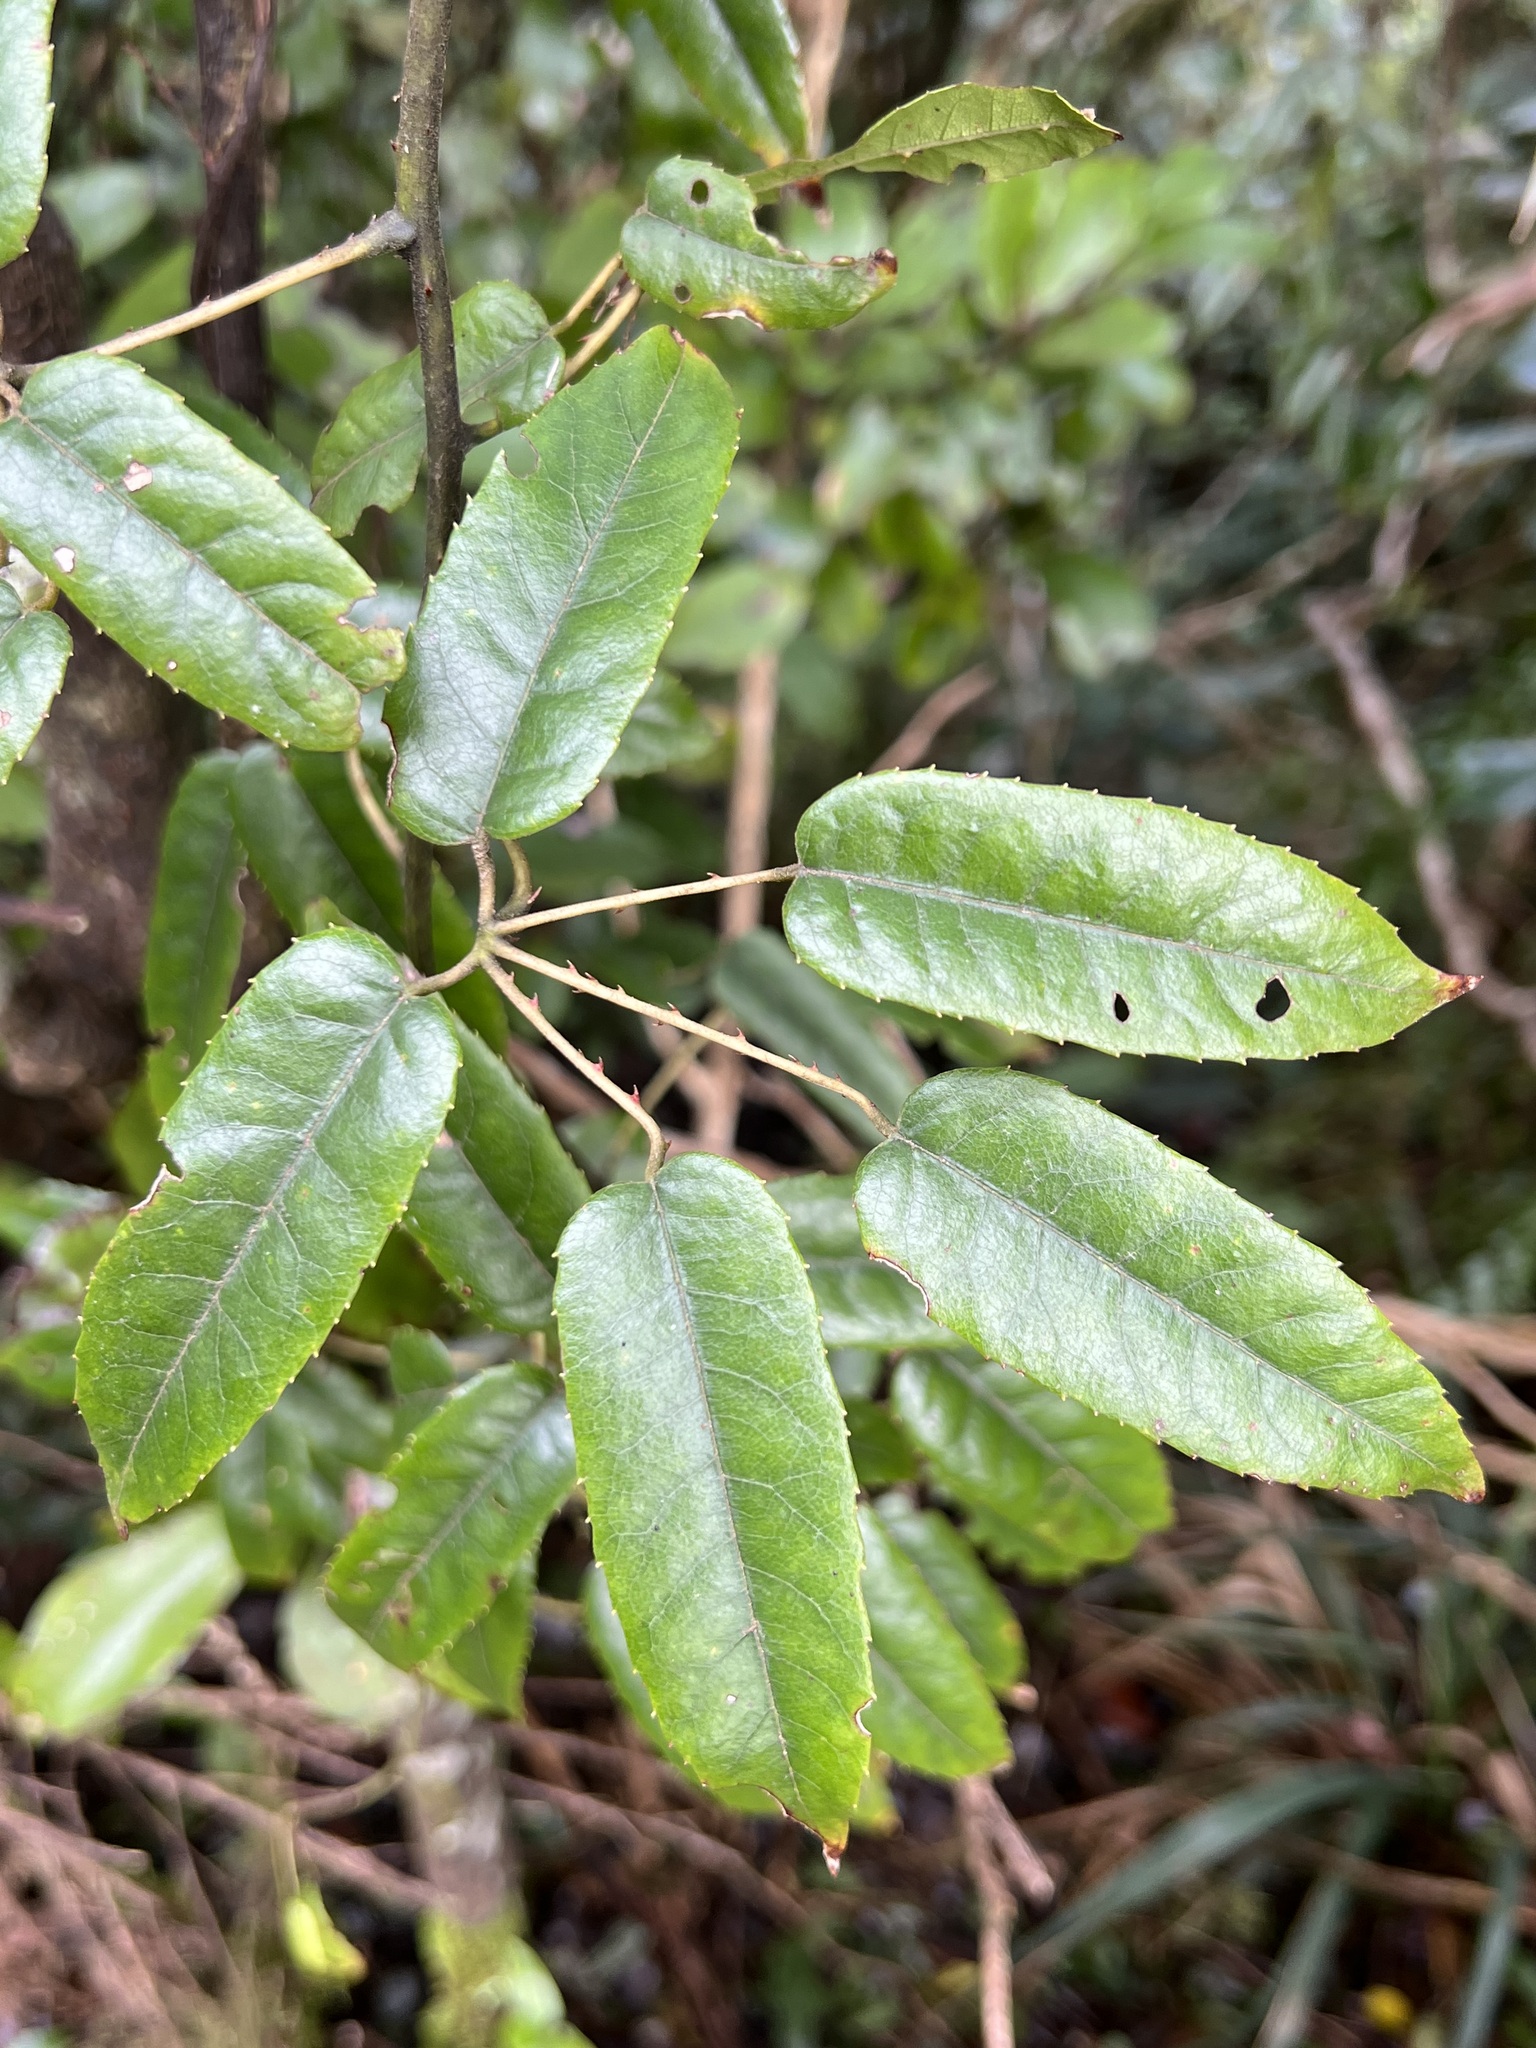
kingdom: Plantae
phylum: Tracheophyta
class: Magnoliopsida
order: Rosales
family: Rosaceae
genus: Rubus
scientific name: Rubus cissoides
